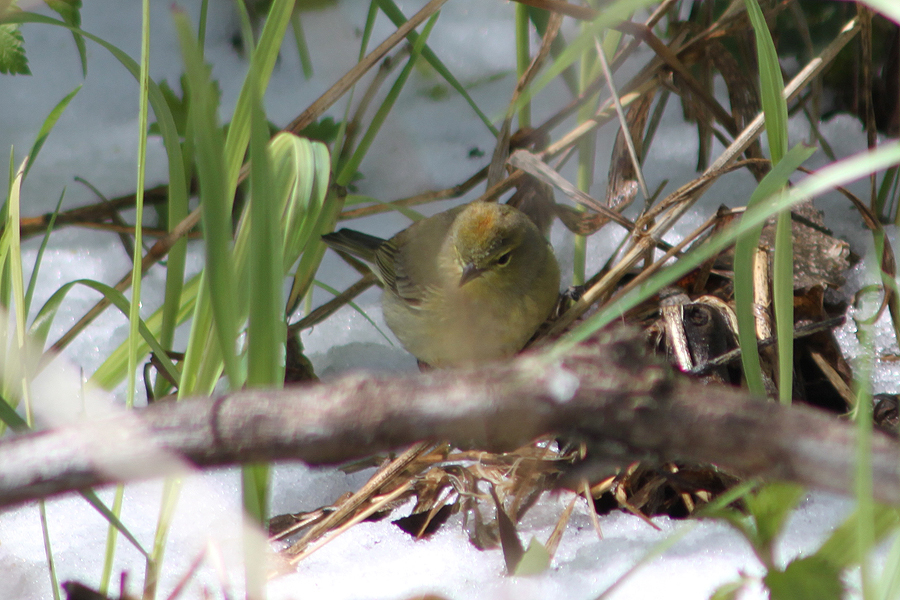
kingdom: Animalia
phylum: Chordata
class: Aves
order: Passeriformes
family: Parulidae
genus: Leiothlypis
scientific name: Leiothlypis celata
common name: Orange-crowned warbler
